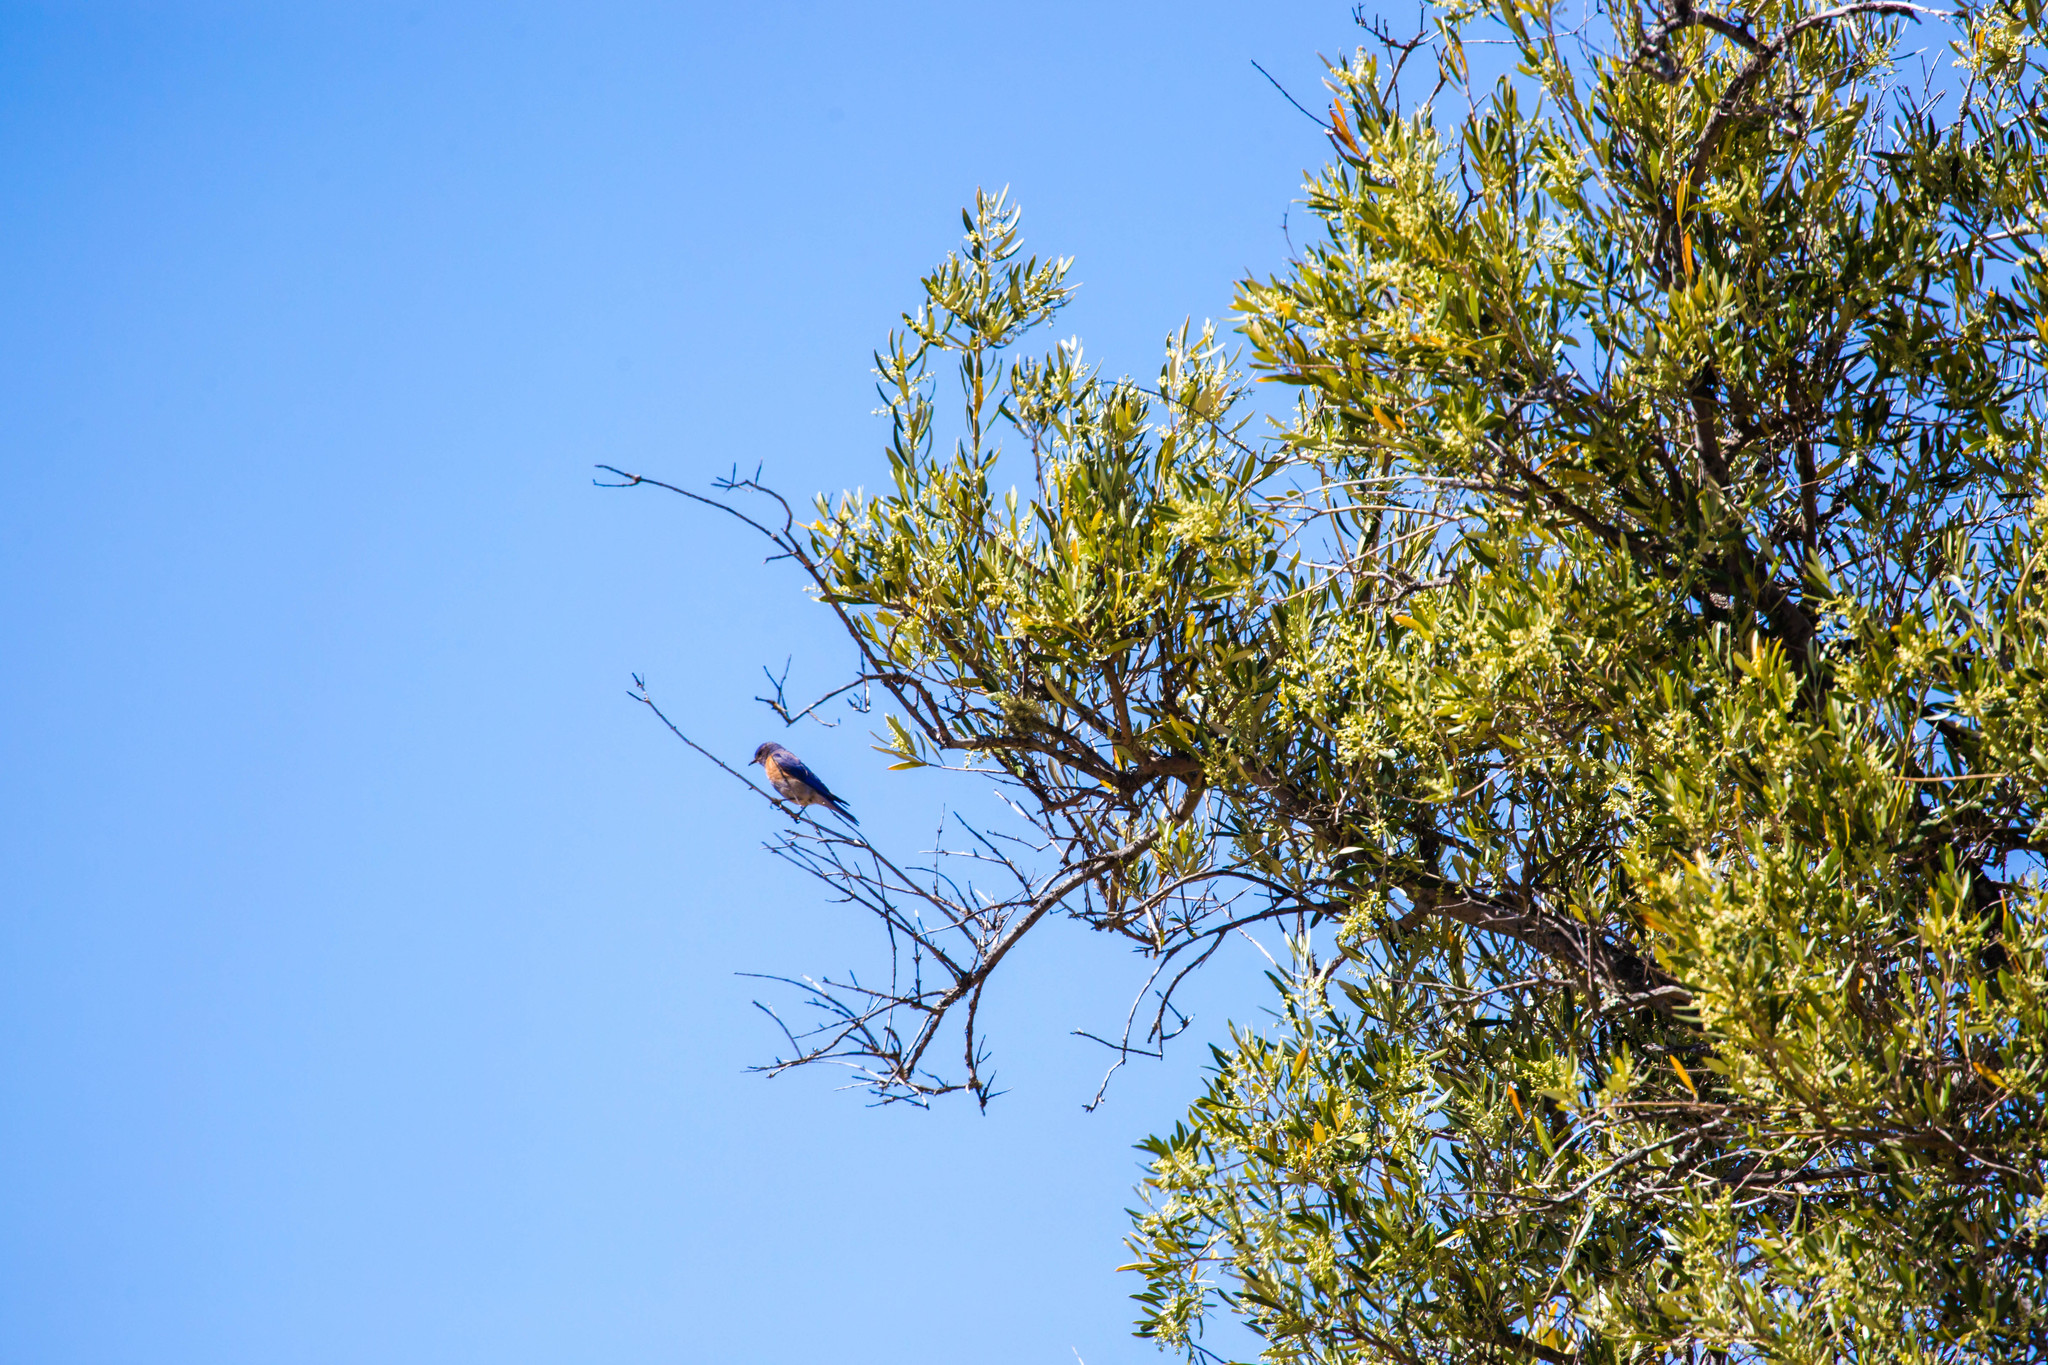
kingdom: Animalia
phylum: Chordata
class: Aves
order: Passeriformes
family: Turdidae
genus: Sialia
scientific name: Sialia mexicana
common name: Western bluebird
